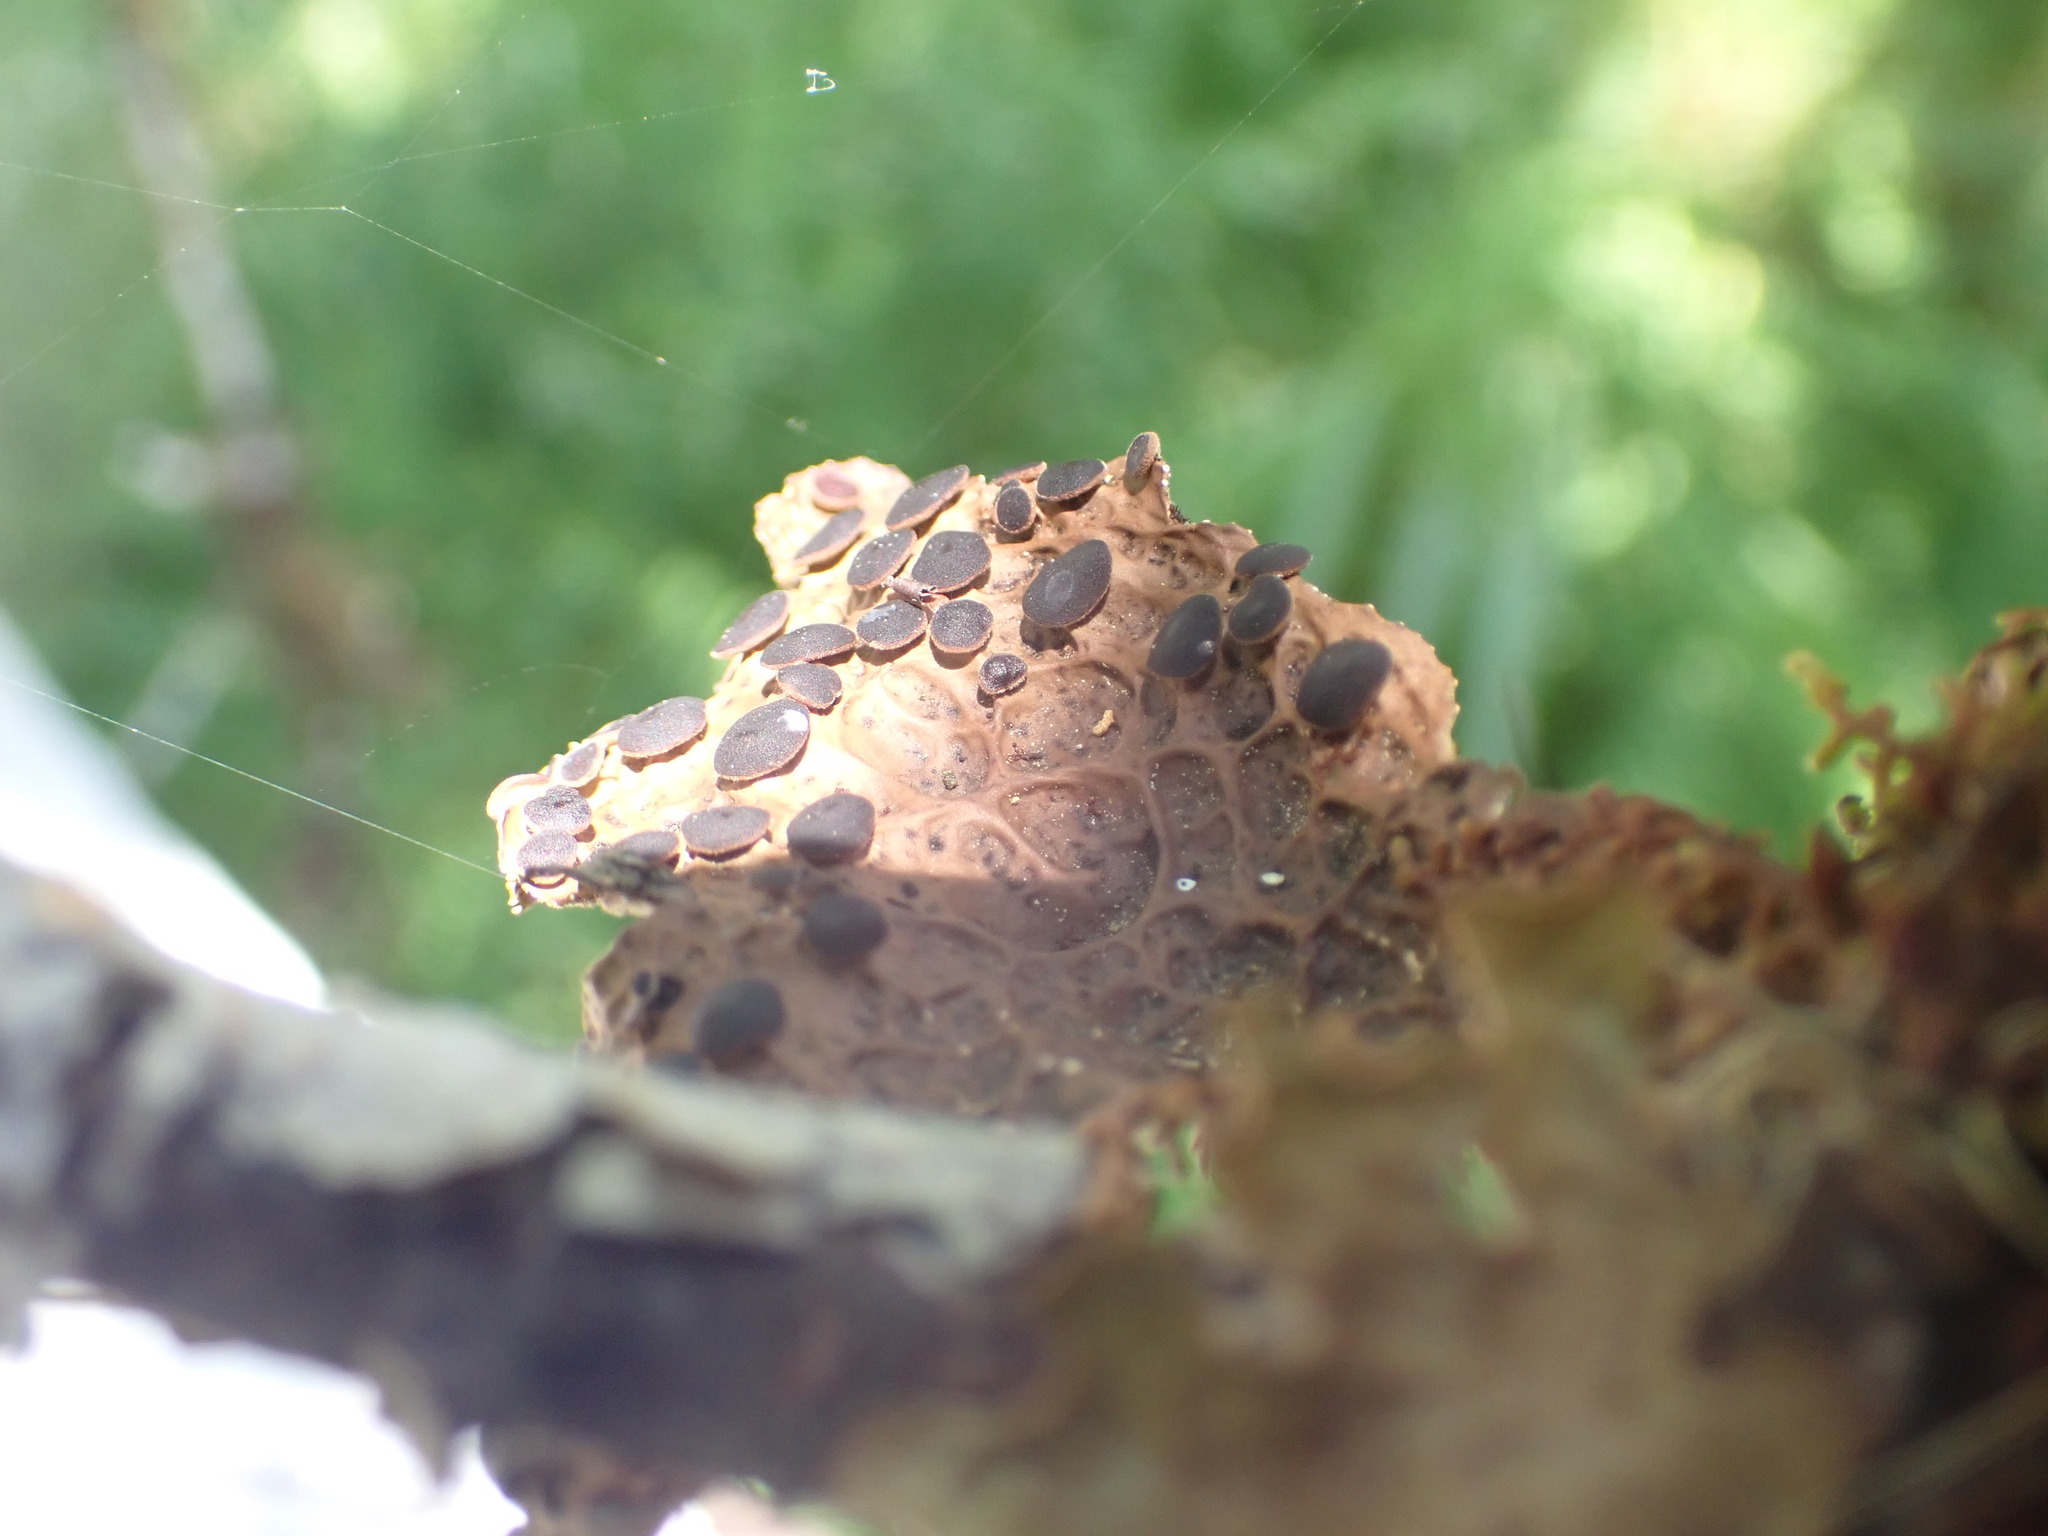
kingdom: Fungi
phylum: Ascomycota
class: Lecanoromycetes
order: Peltigerales
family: Lobariaceae
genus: Lobaria
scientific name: Lobaria anthraspis
